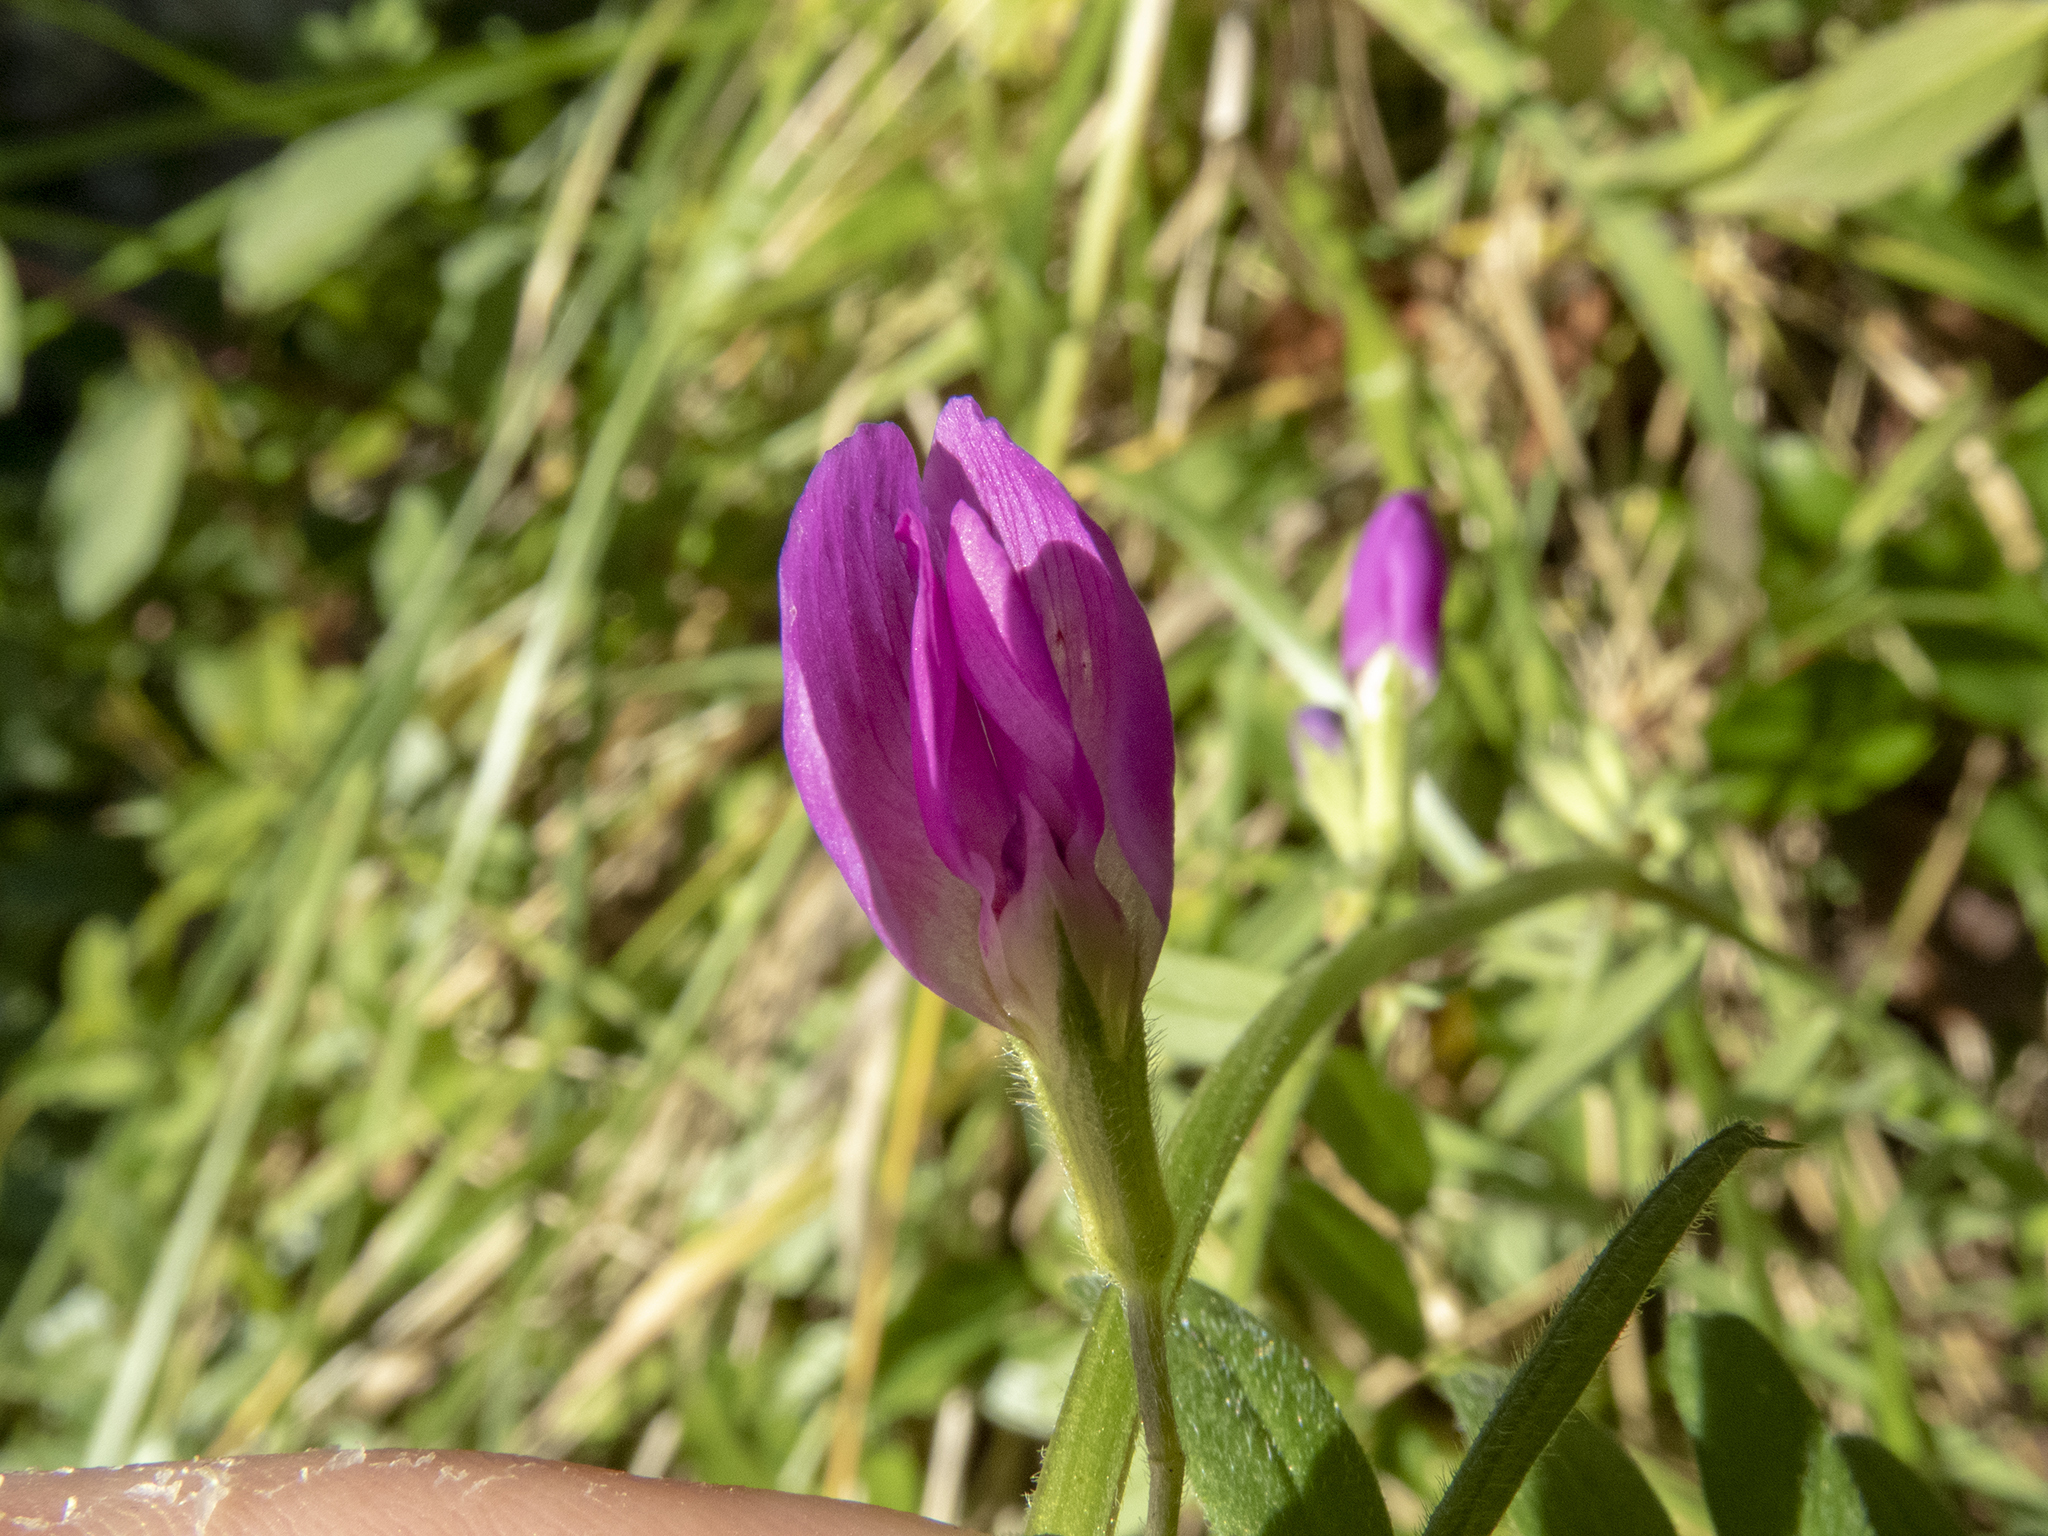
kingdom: Plantae
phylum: Tracheophyta
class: Magnoliopsida
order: Fabales
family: Fabaceae
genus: Vicia
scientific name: Vicia sativa
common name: Garden vetch
